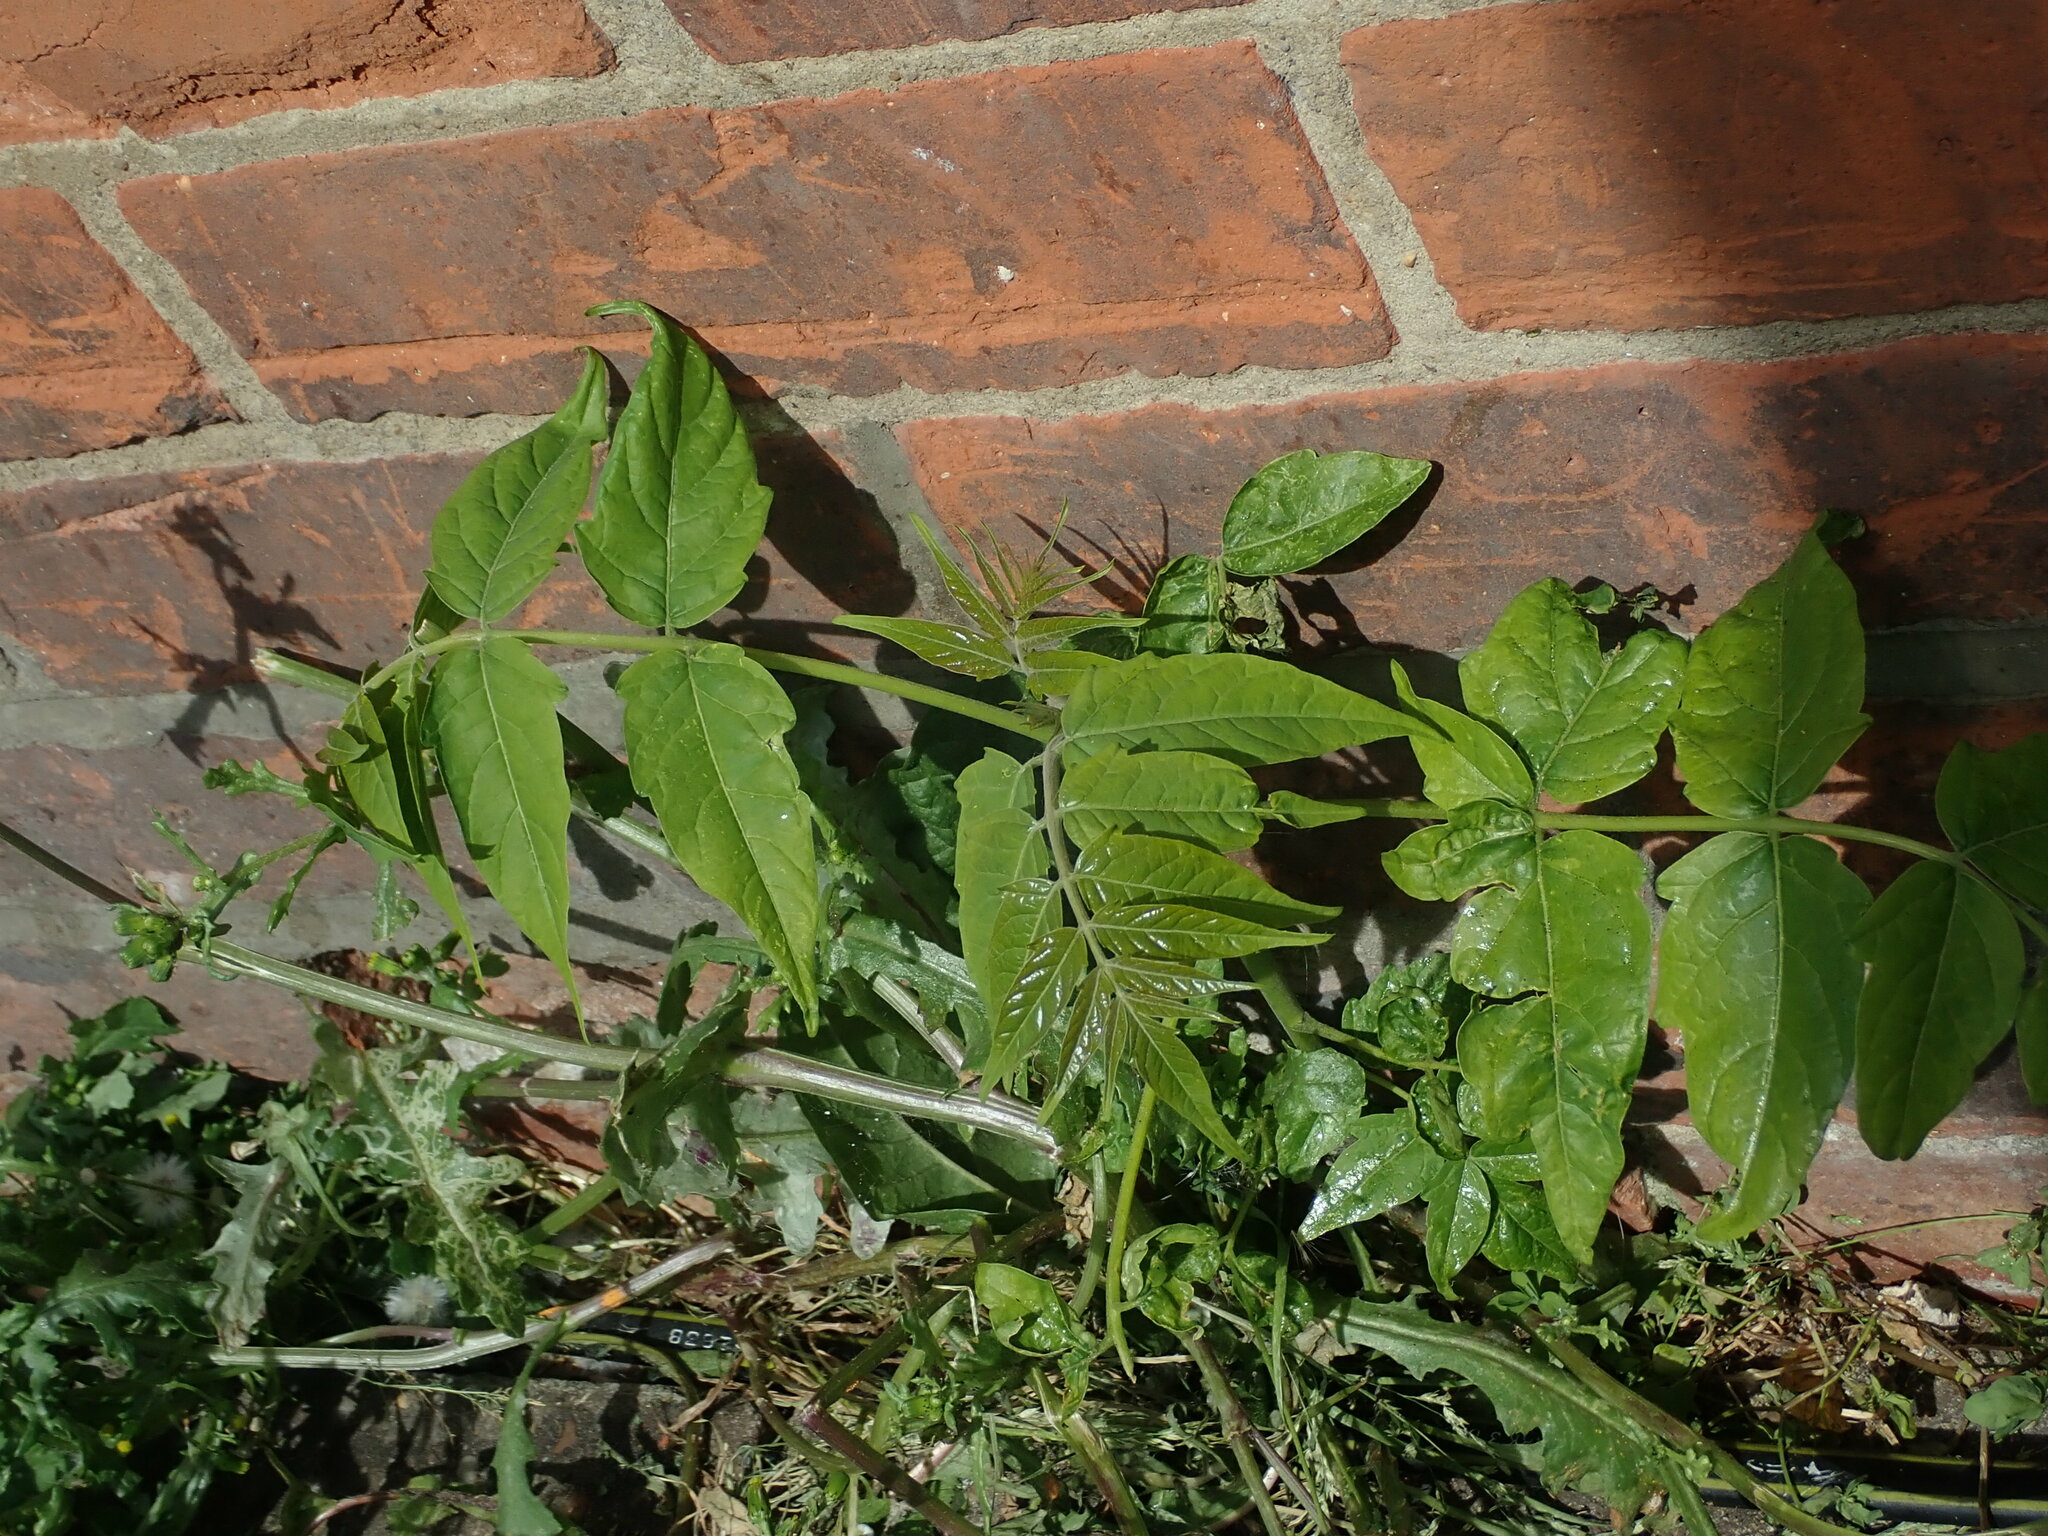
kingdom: Plantae
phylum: Tracheophyta
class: Magnoliopsida
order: Sapindales
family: Simaroubaceae
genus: Ailanthus
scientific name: Ailanthus altissima
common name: Tree-of-heaven
